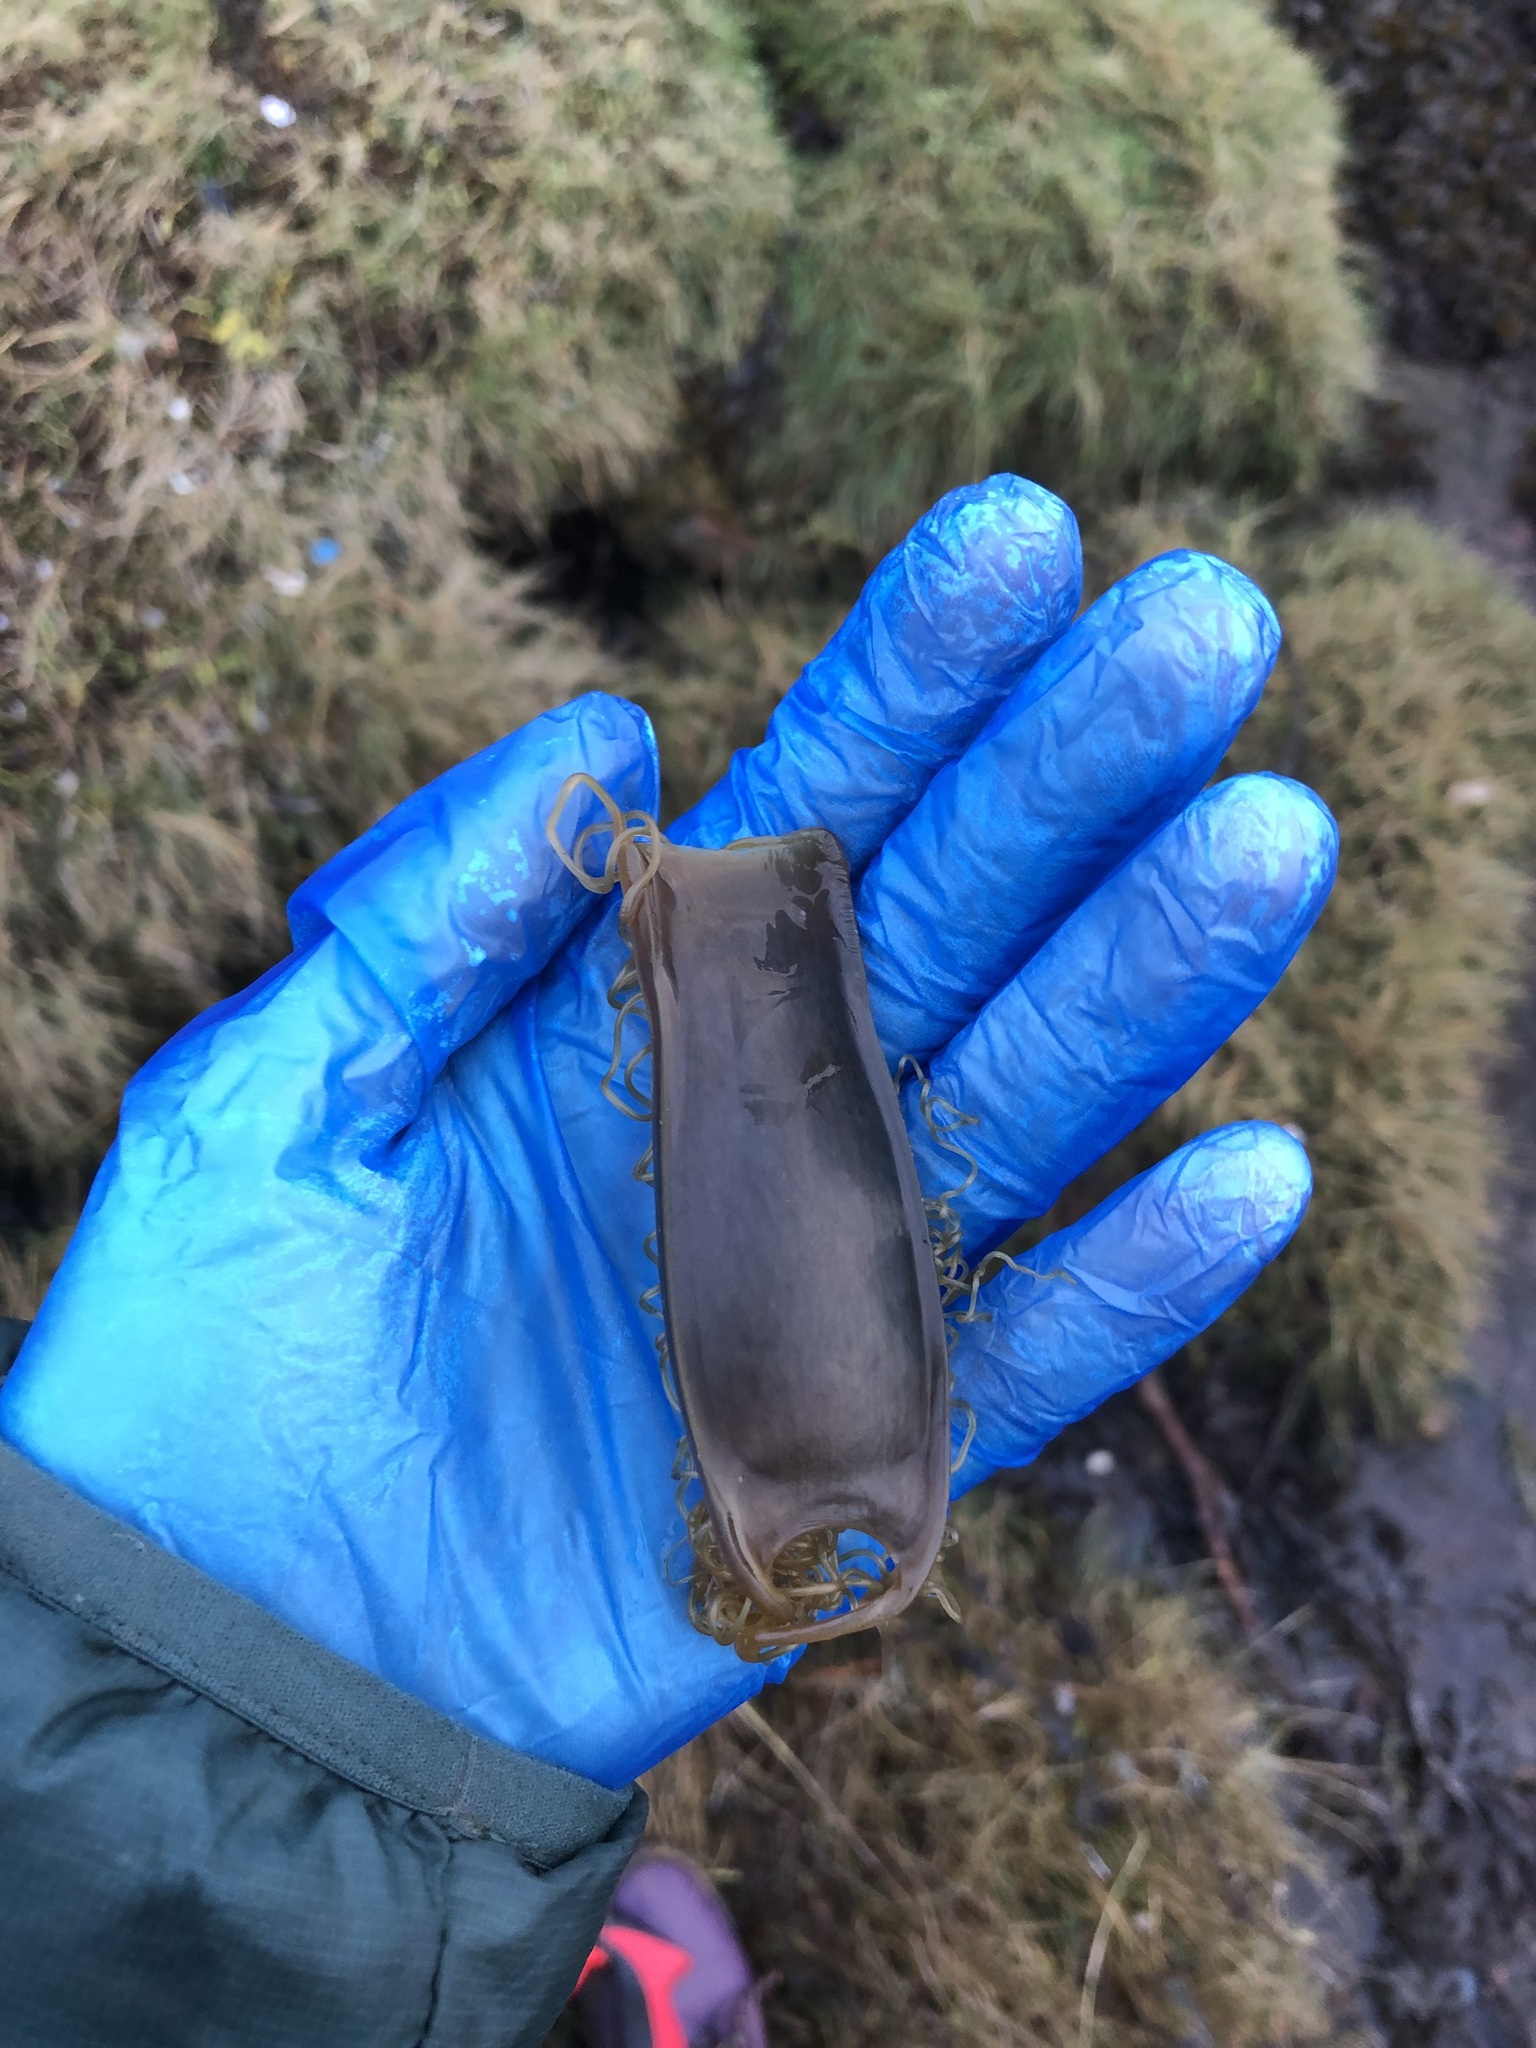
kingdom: Animalia
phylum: Chordata
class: Elasmobranchii
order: Carcharhiniformes
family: Scyliorhinidae
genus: Scyliorhinus
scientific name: Scyliorhinus canicula
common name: Lesser spotted dogfish
